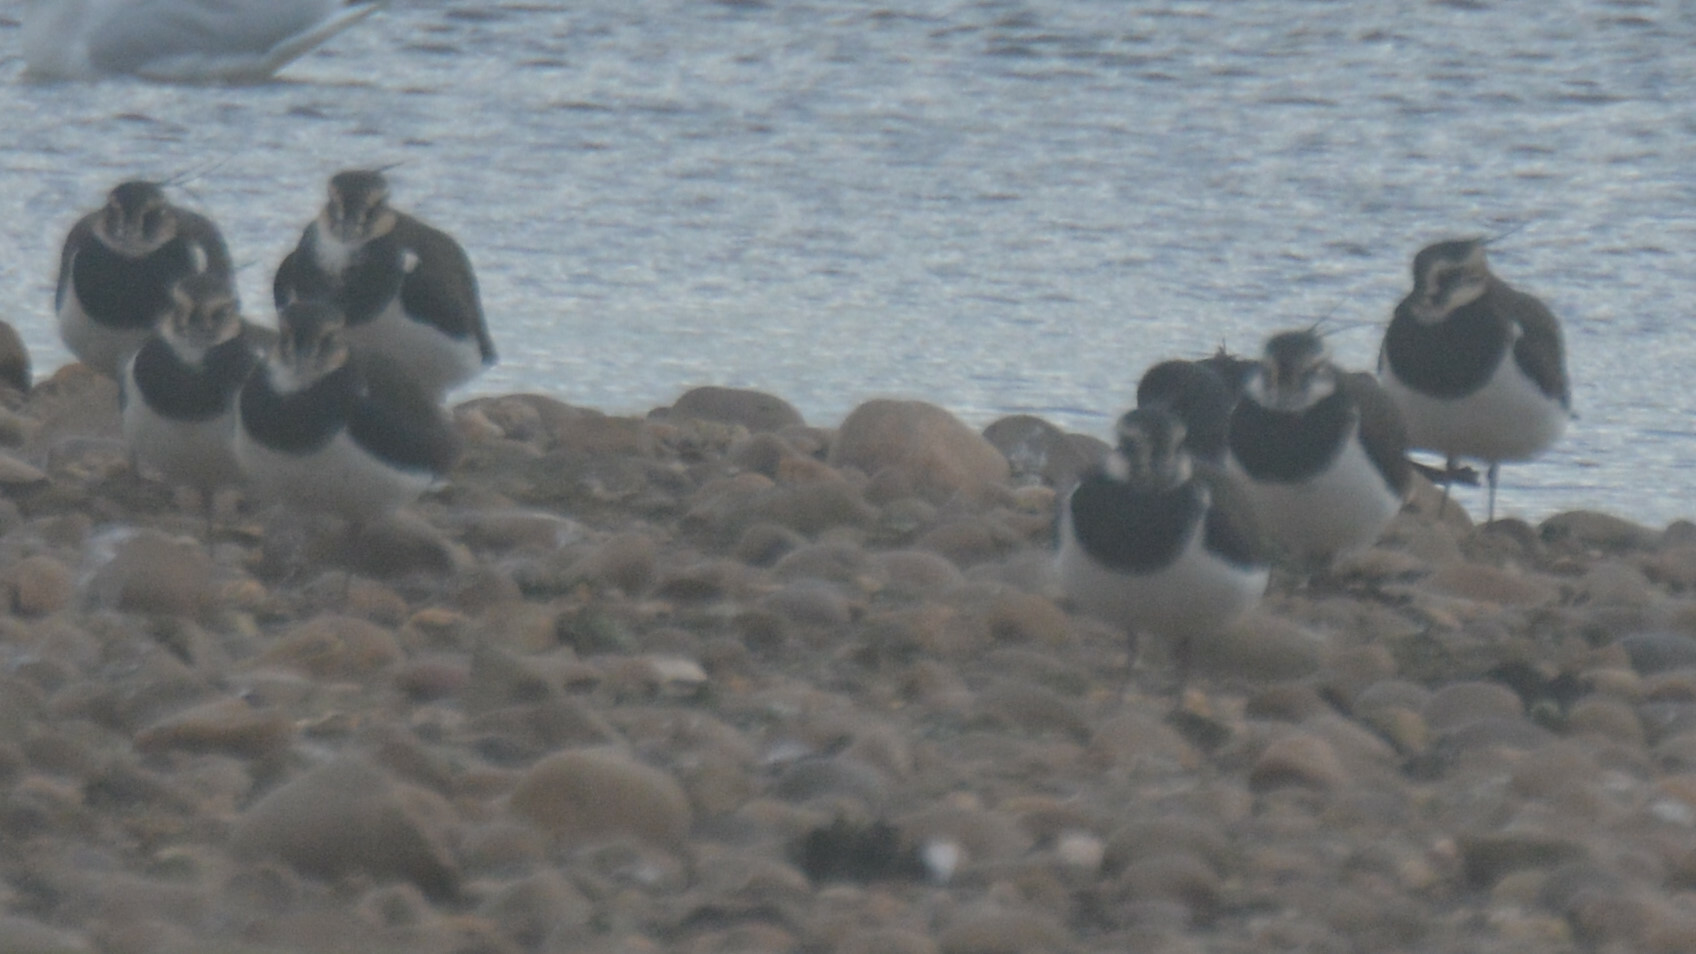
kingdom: Animalia
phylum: Chordata
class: Aves
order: Charadriiformes
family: Charadriidae
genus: Vanellus
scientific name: Vanellus vanellus
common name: Northern lapwing
